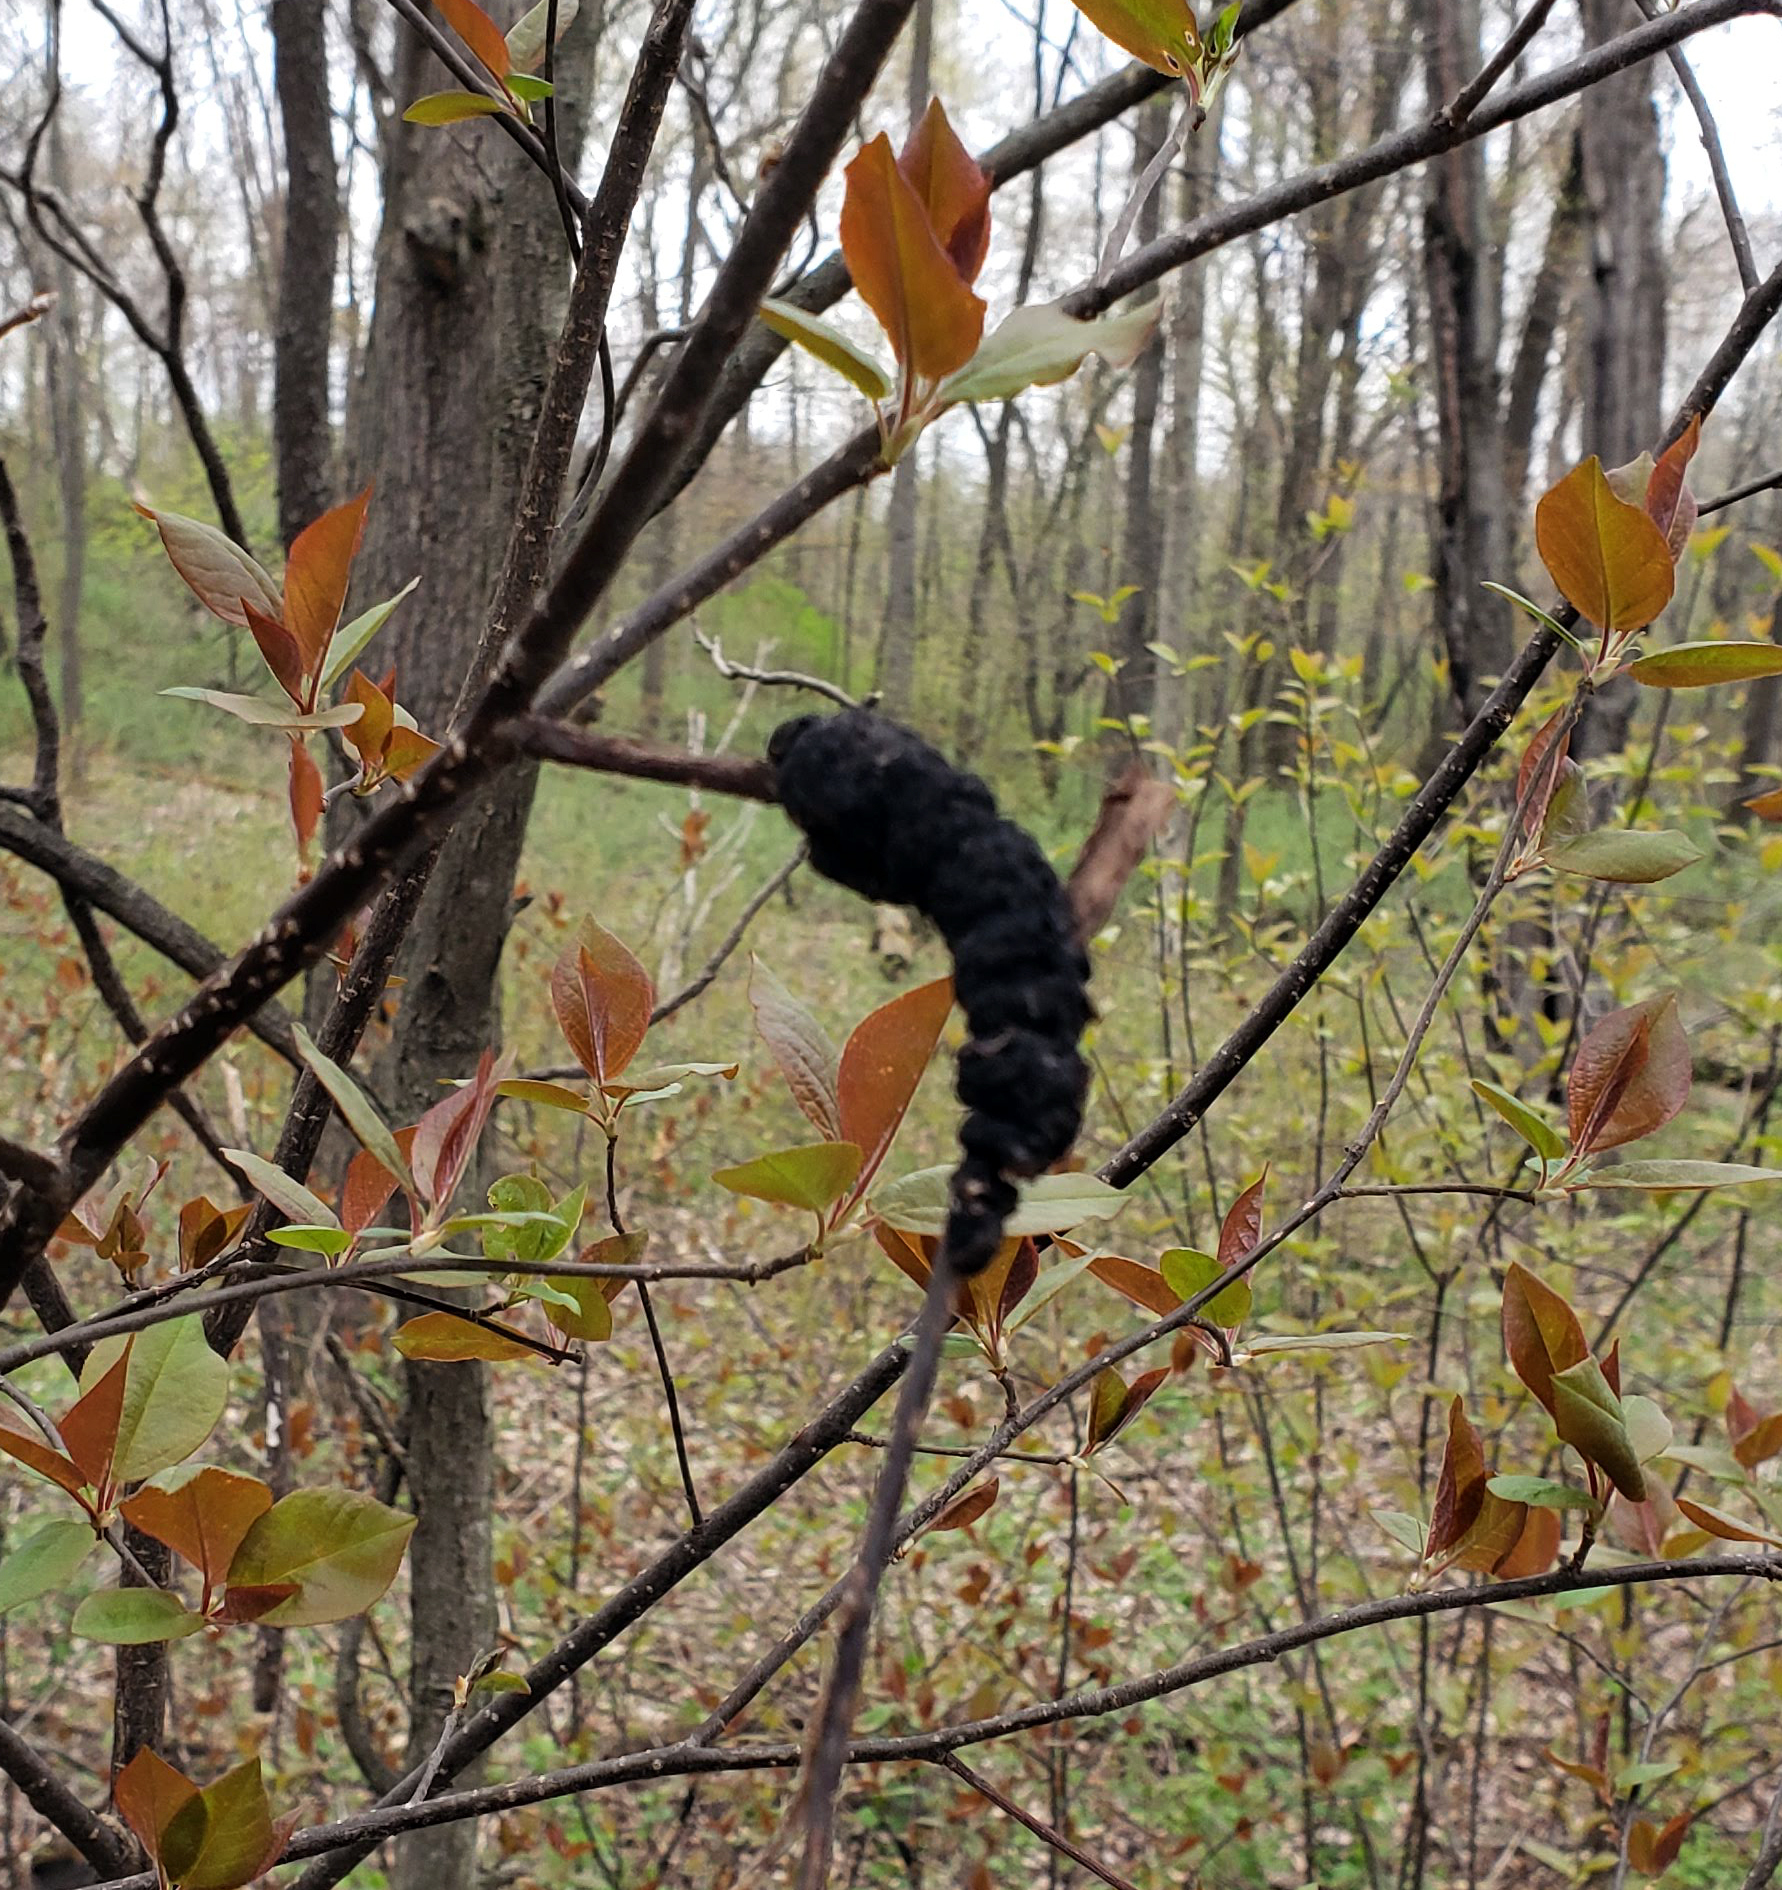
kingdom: Fungi
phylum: Ascomycota
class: Dothideomycetes
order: Venturiales
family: Venturiaceae
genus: Apiosporina
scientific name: Apiosporina morbosa
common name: Black knot
